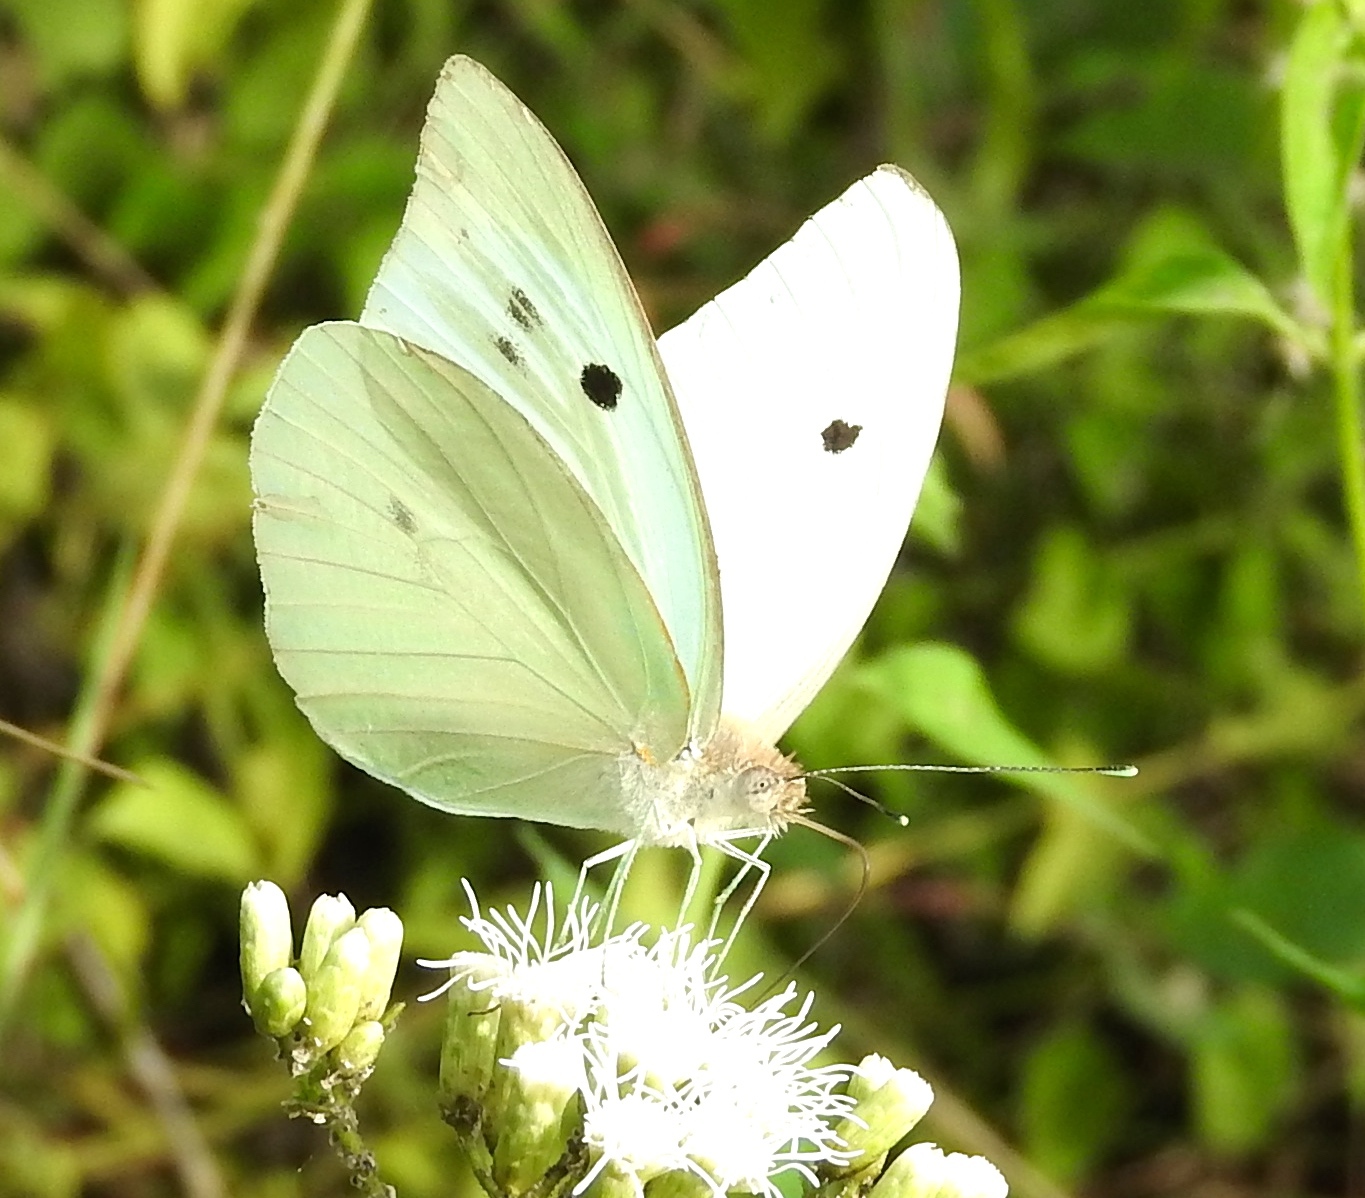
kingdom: Animalia
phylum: Arthropoda
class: Insecta
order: Lepidoptera
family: Pieridae
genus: Ganyra
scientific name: Ganyra josephina
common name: Giant white
